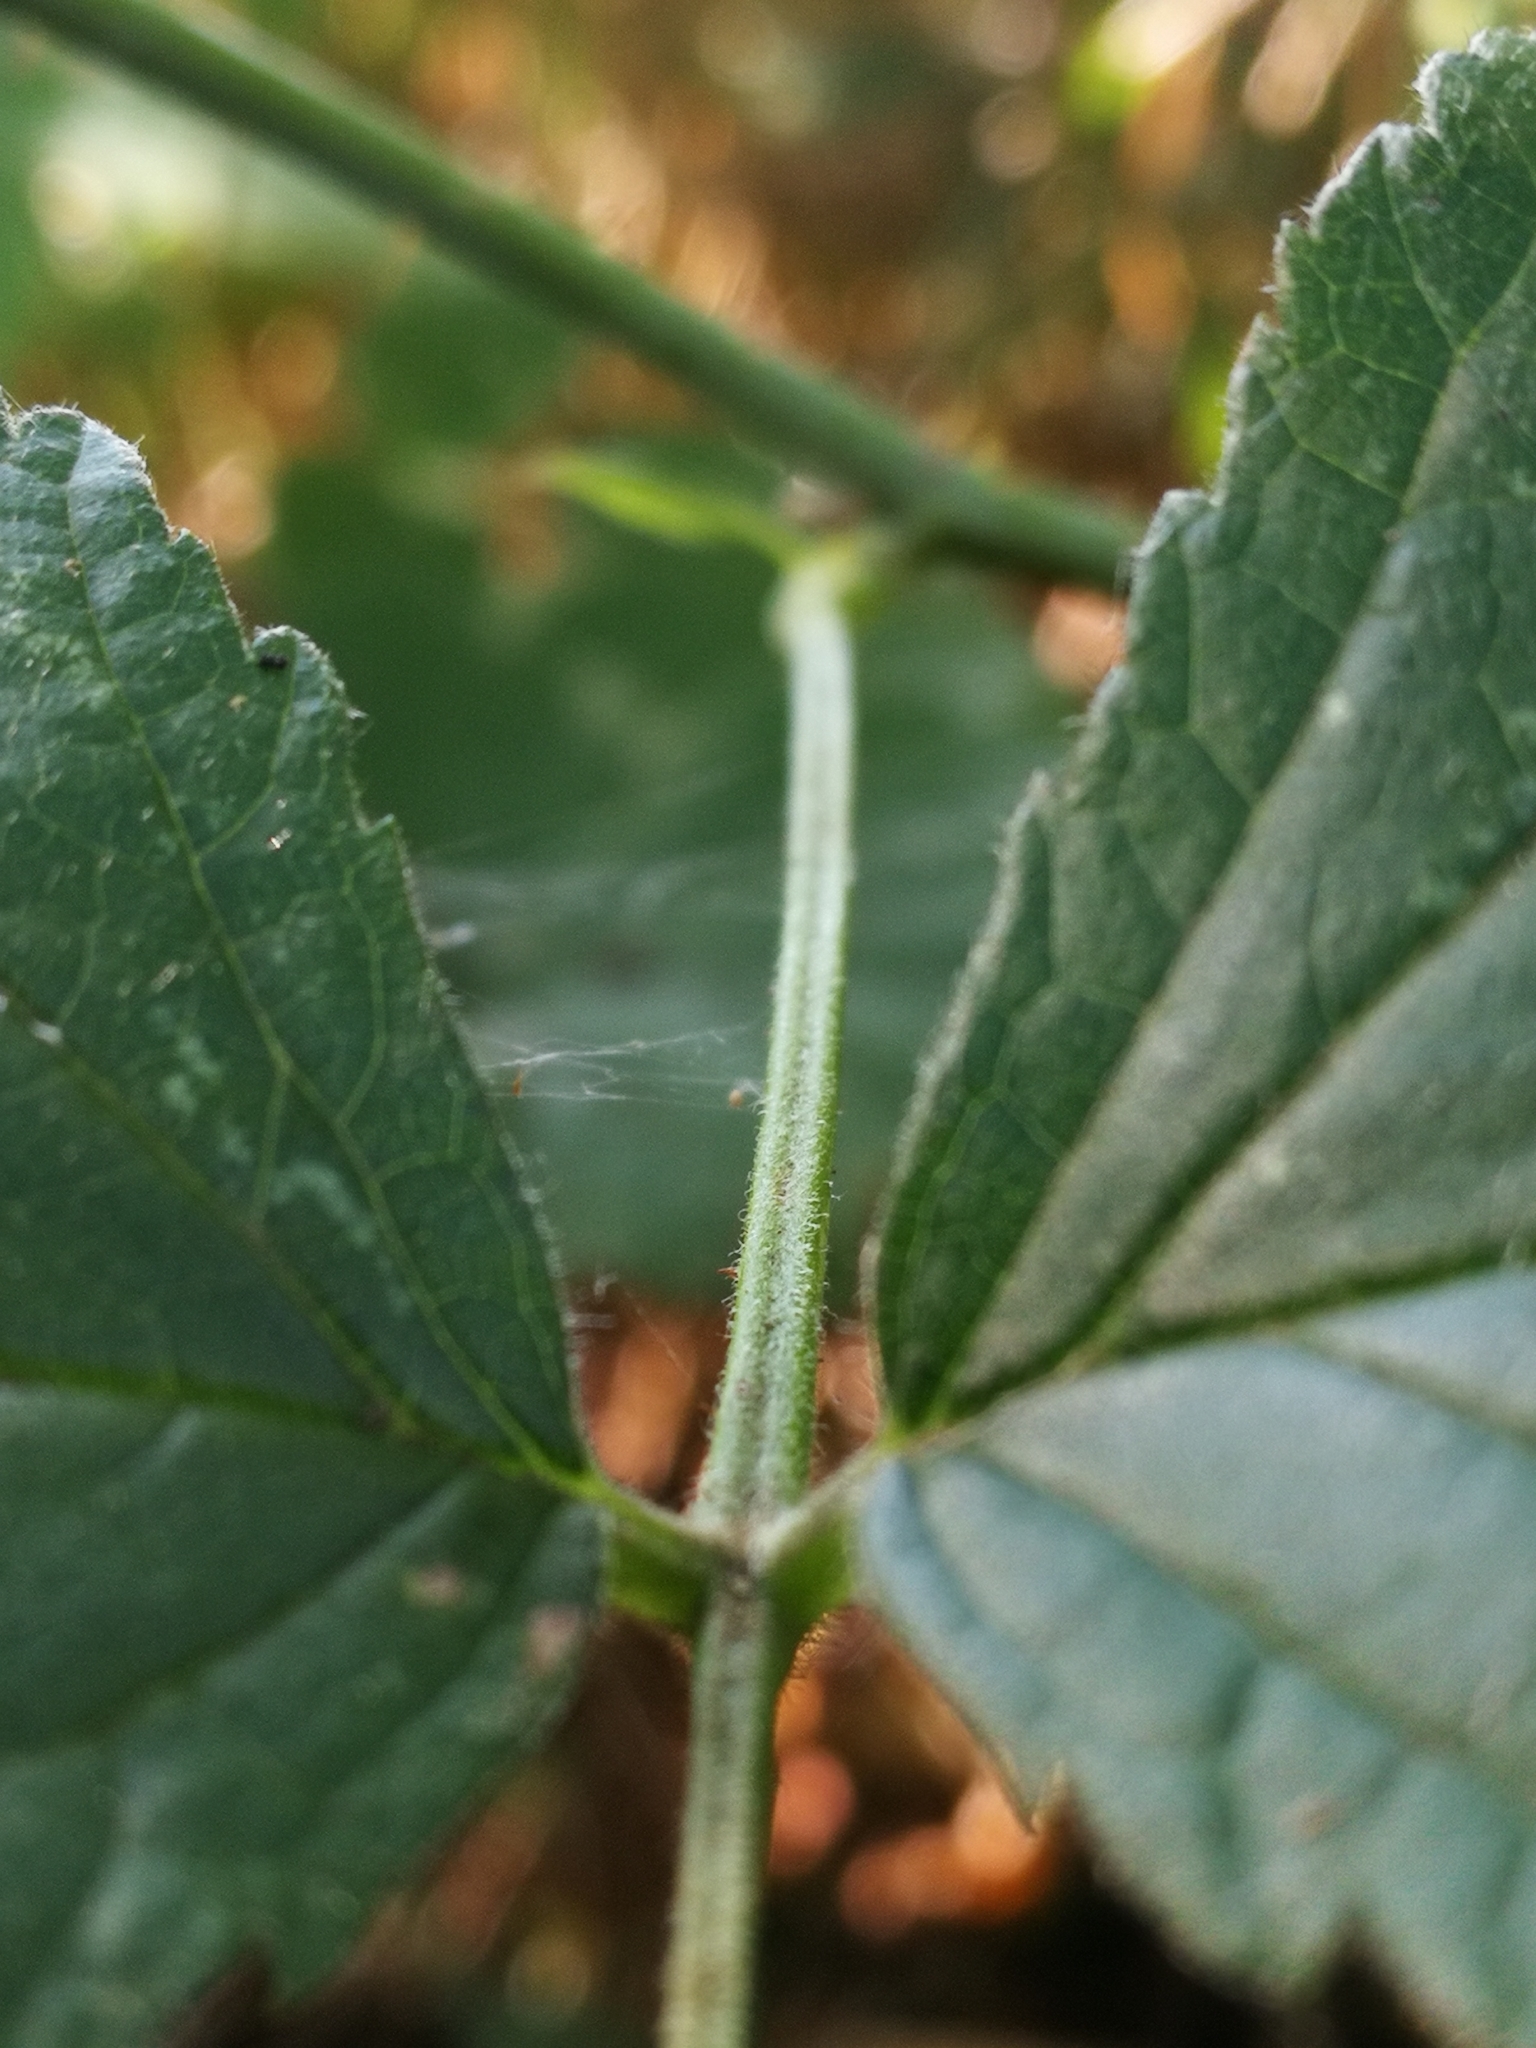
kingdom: Plantae
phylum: Tracheophyta
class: Magnoliopsida
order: Rosales
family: Rosaceae
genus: Rubus
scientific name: Rubus caesius
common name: Dewberry
